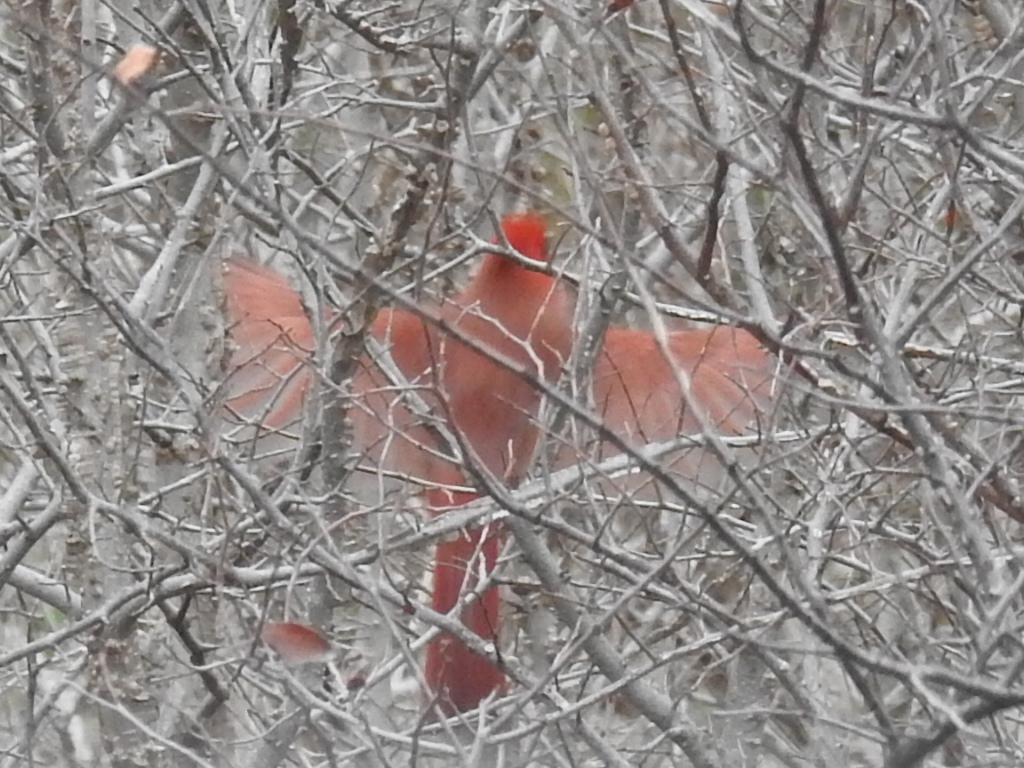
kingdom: Animalia
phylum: Chordata
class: Aves
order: Passeriformes
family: Cardinalidae
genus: Cardinalis
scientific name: Cardinalis cardinalis
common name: Northern cardinal
